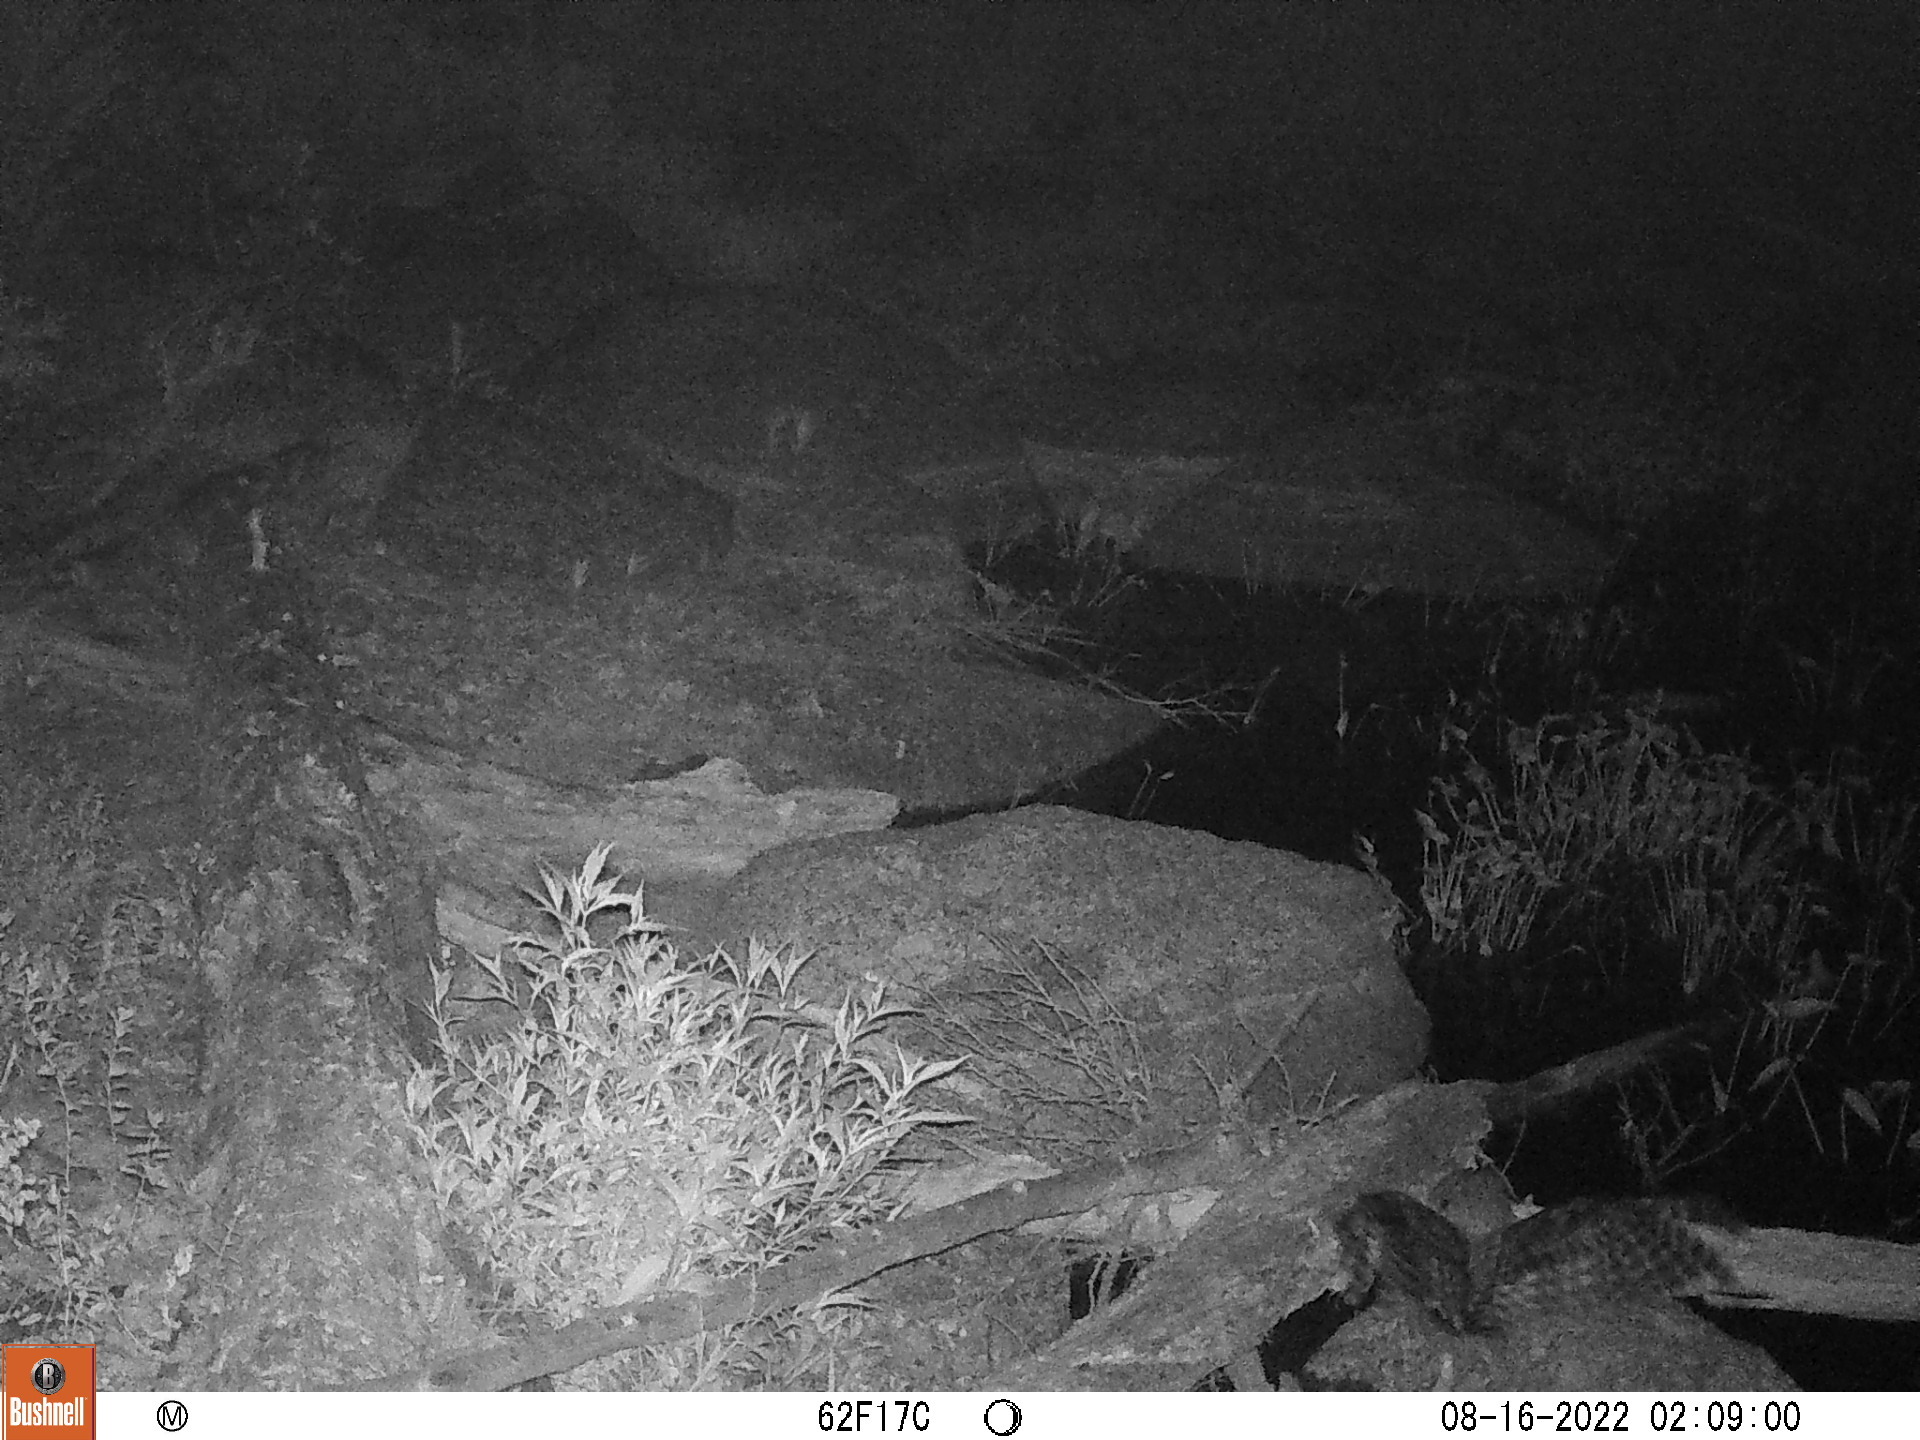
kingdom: Animalia
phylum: Chordata
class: Aves
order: Strigiformes
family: Strigidae
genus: Strix
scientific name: Strix varia
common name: Barred owl
